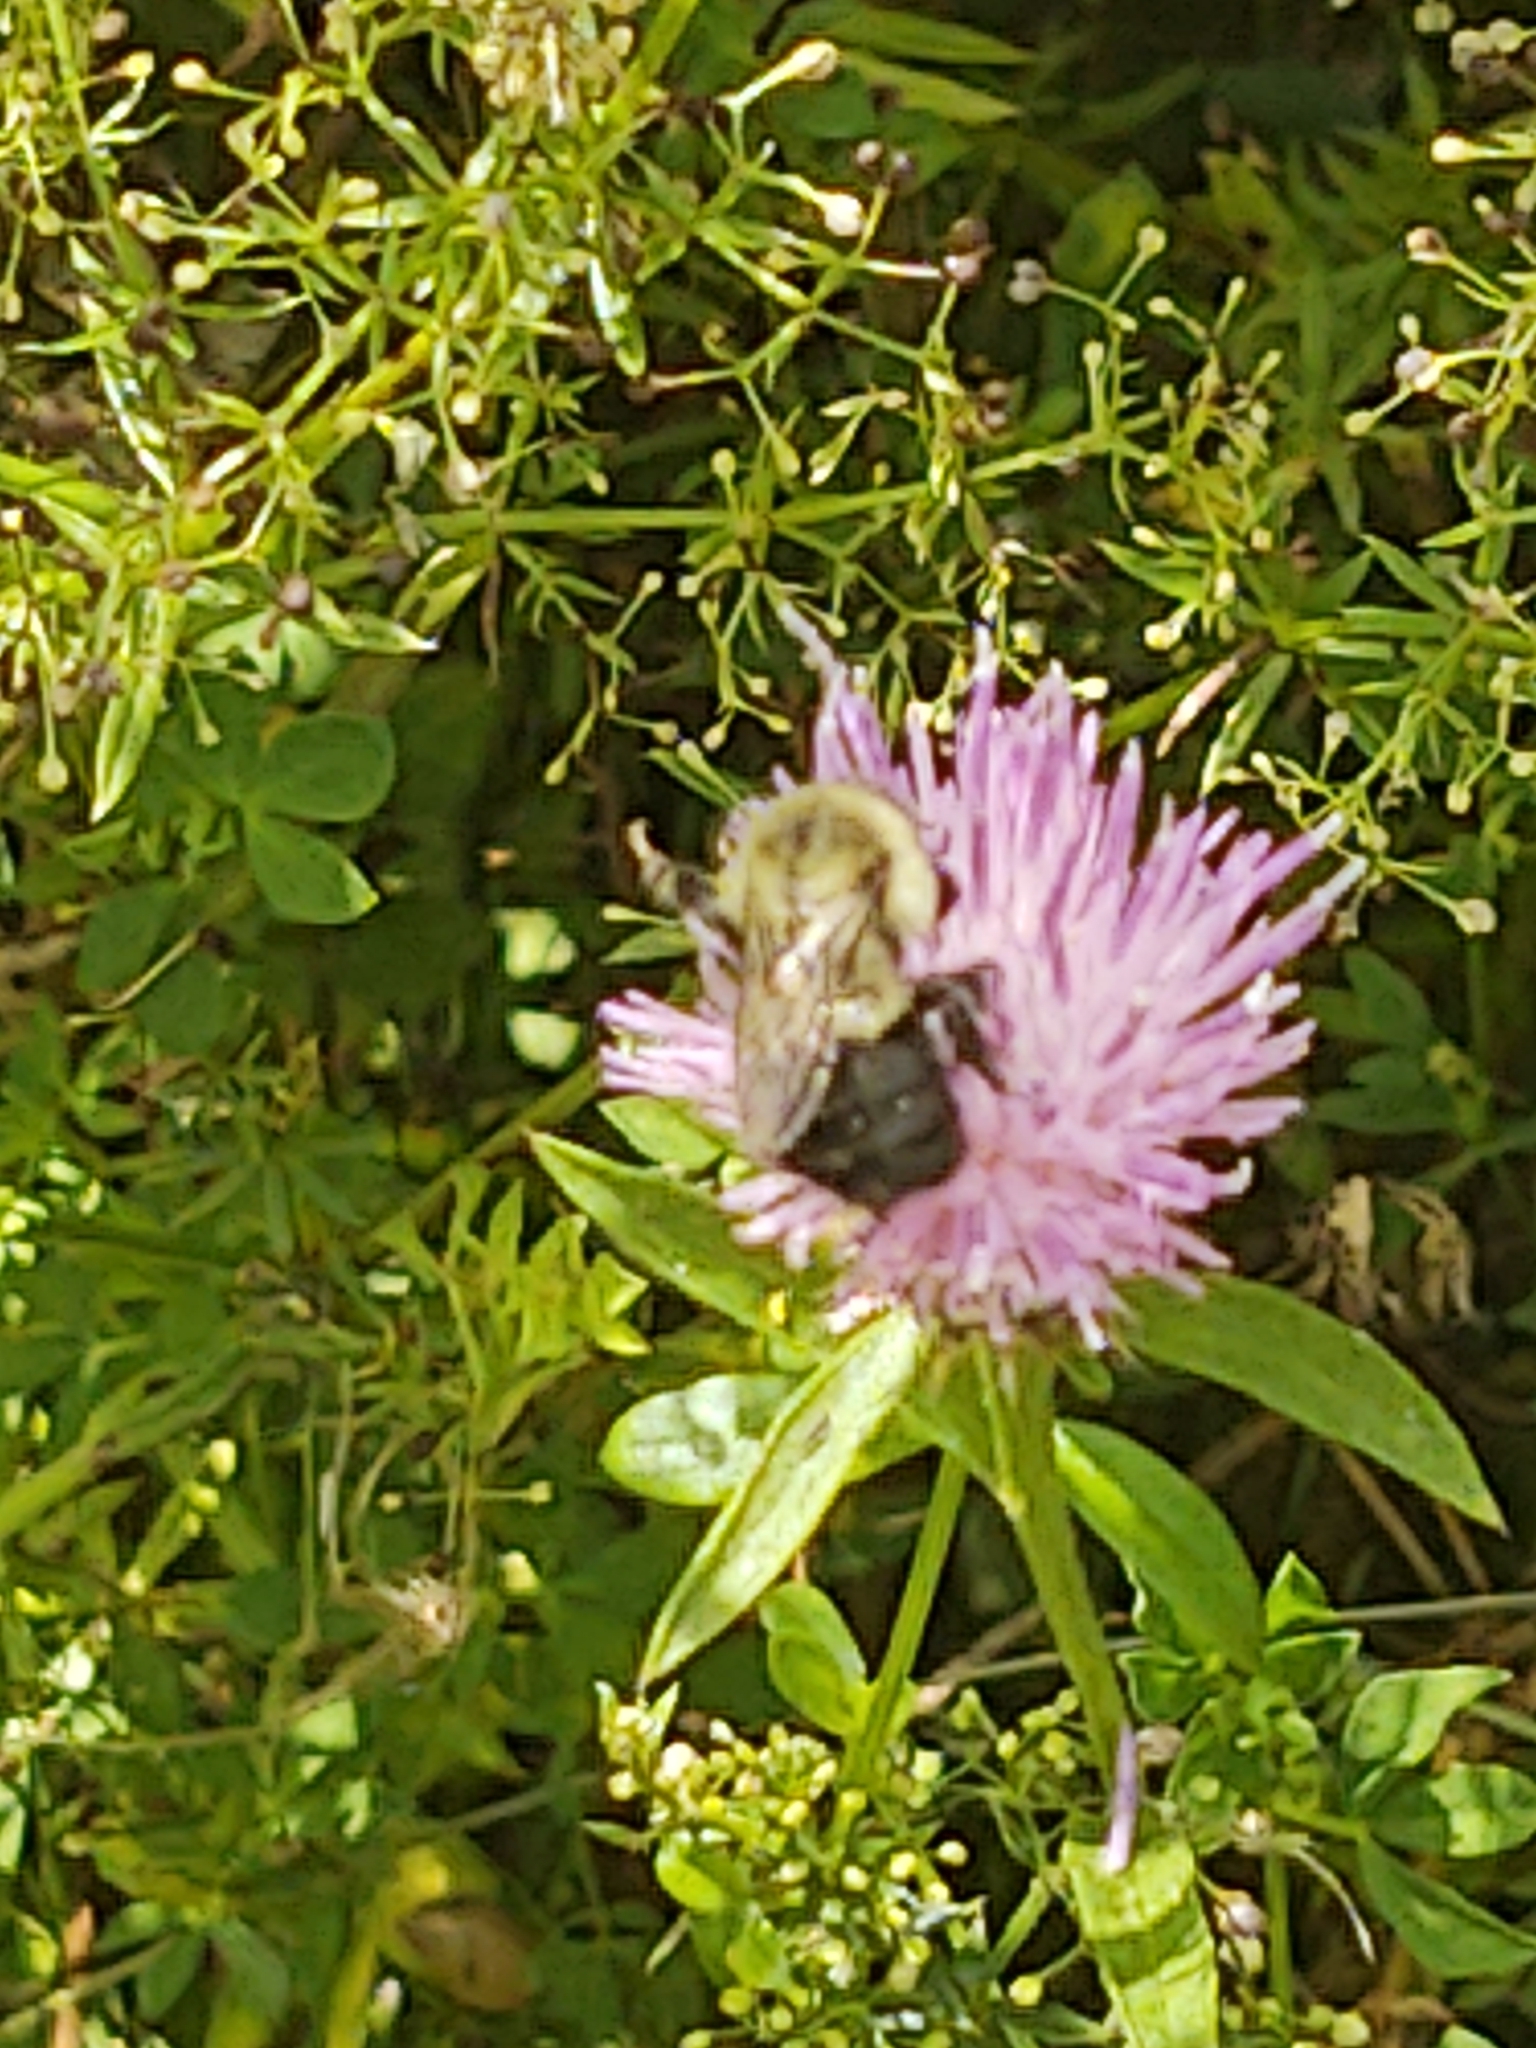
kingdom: Animalia
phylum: Arthropoda
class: Insecta
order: Hymenoptera
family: Apidae
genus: Bombus
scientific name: Bombus impatiens
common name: Common eastern bumble bee
